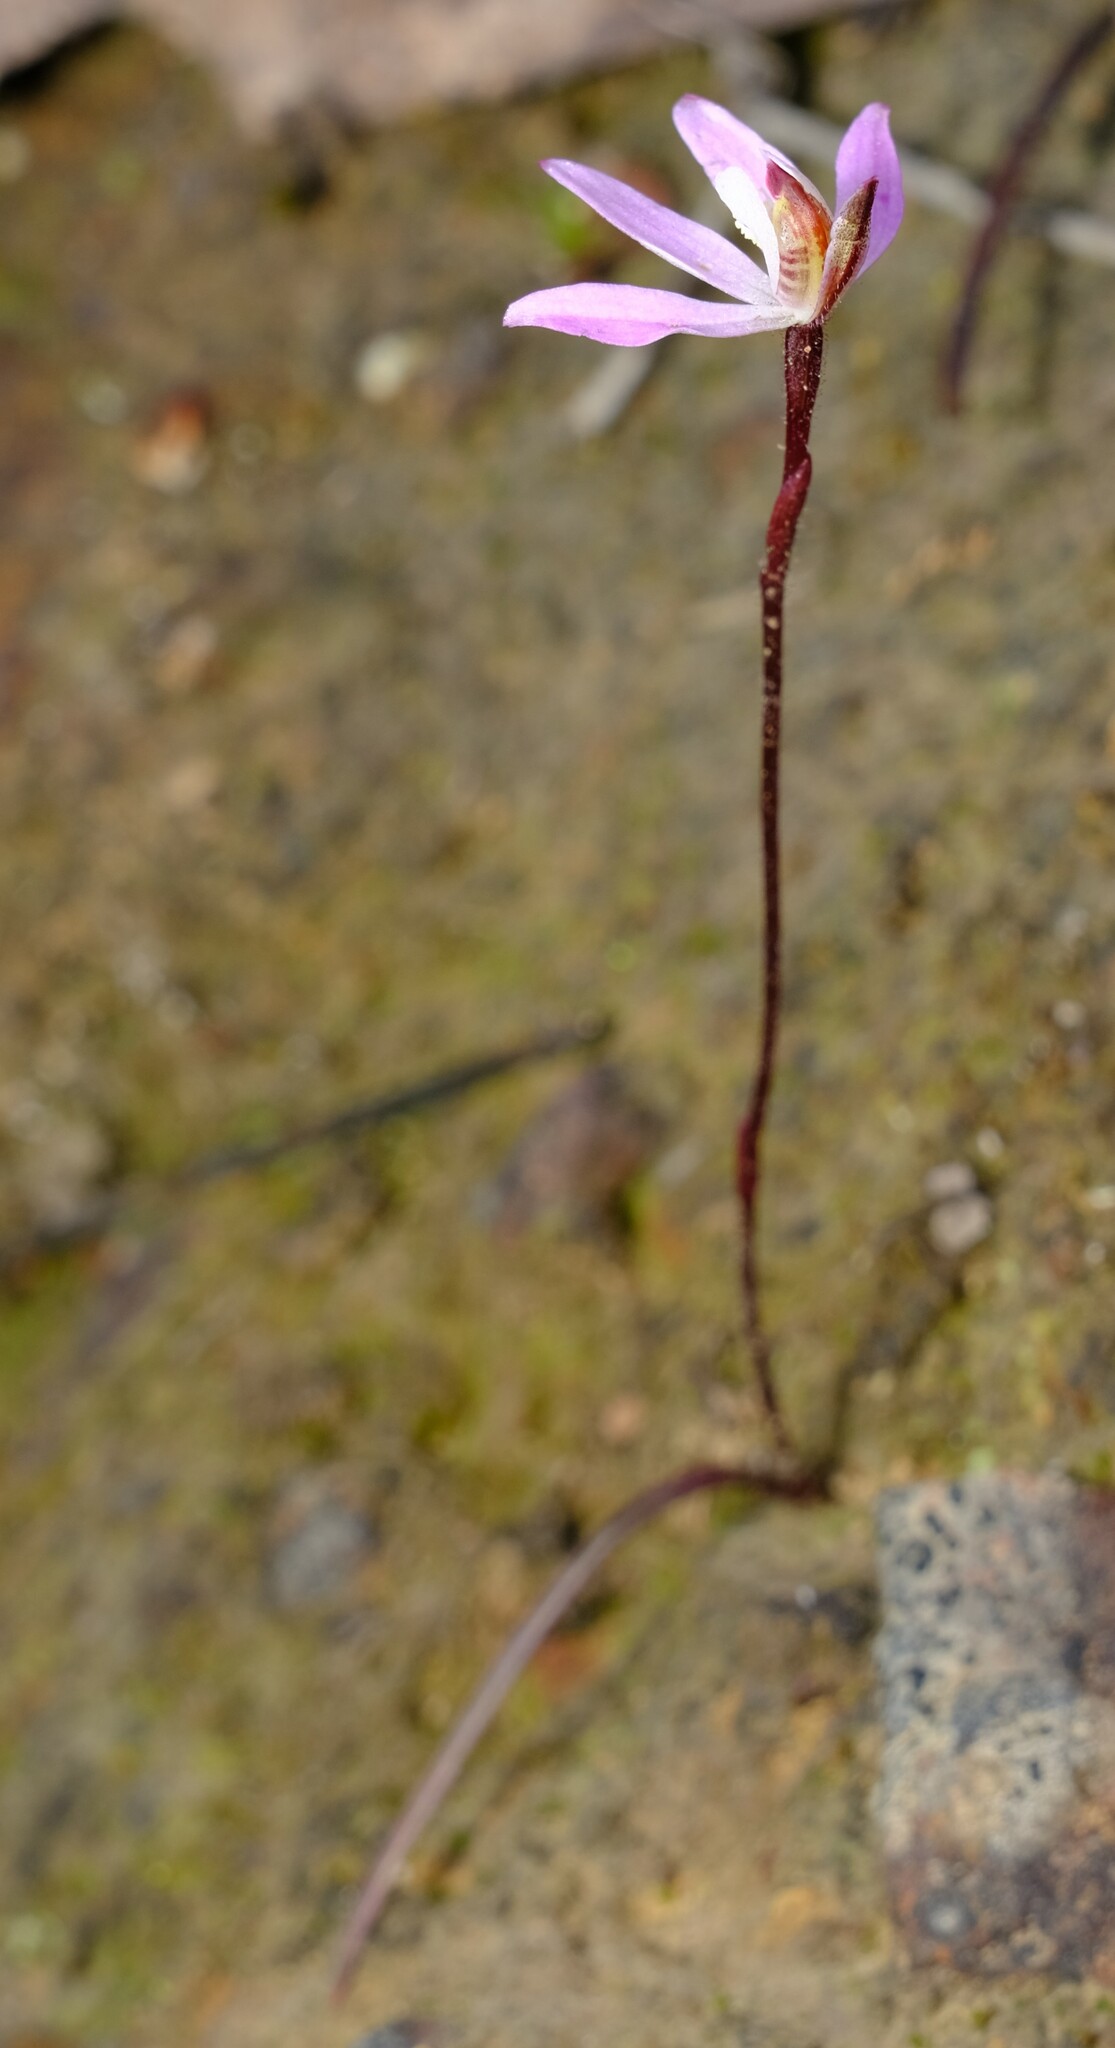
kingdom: Plantae
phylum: Tracheophyta
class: Liliopsida
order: Asparagales
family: Orchidaceae
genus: Caladenia
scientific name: Caladenia fuscata
